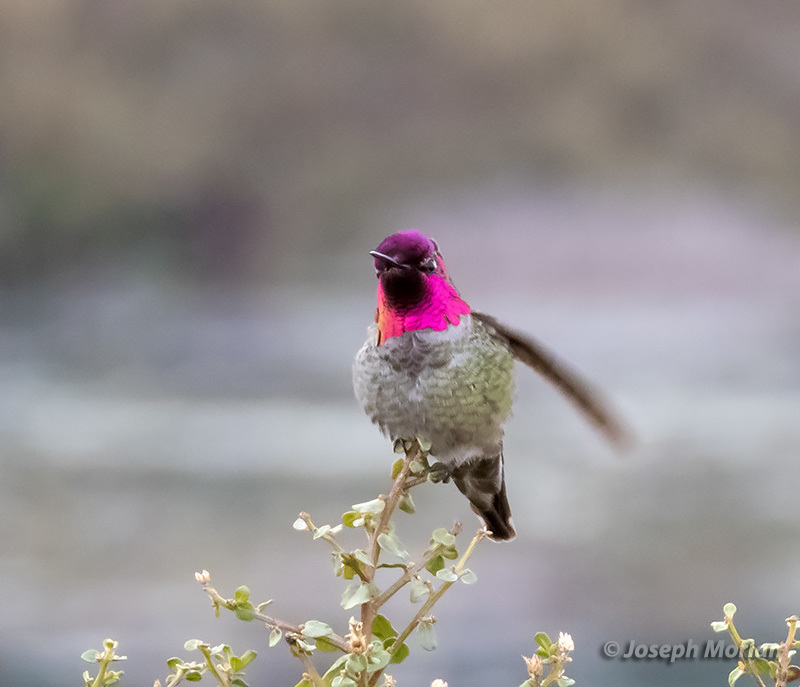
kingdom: Animalia
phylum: Chordata
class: Aves
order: Apodiformes
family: Trochilidae
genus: Calypte
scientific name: Calypte anna
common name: Anna's hummingbird
